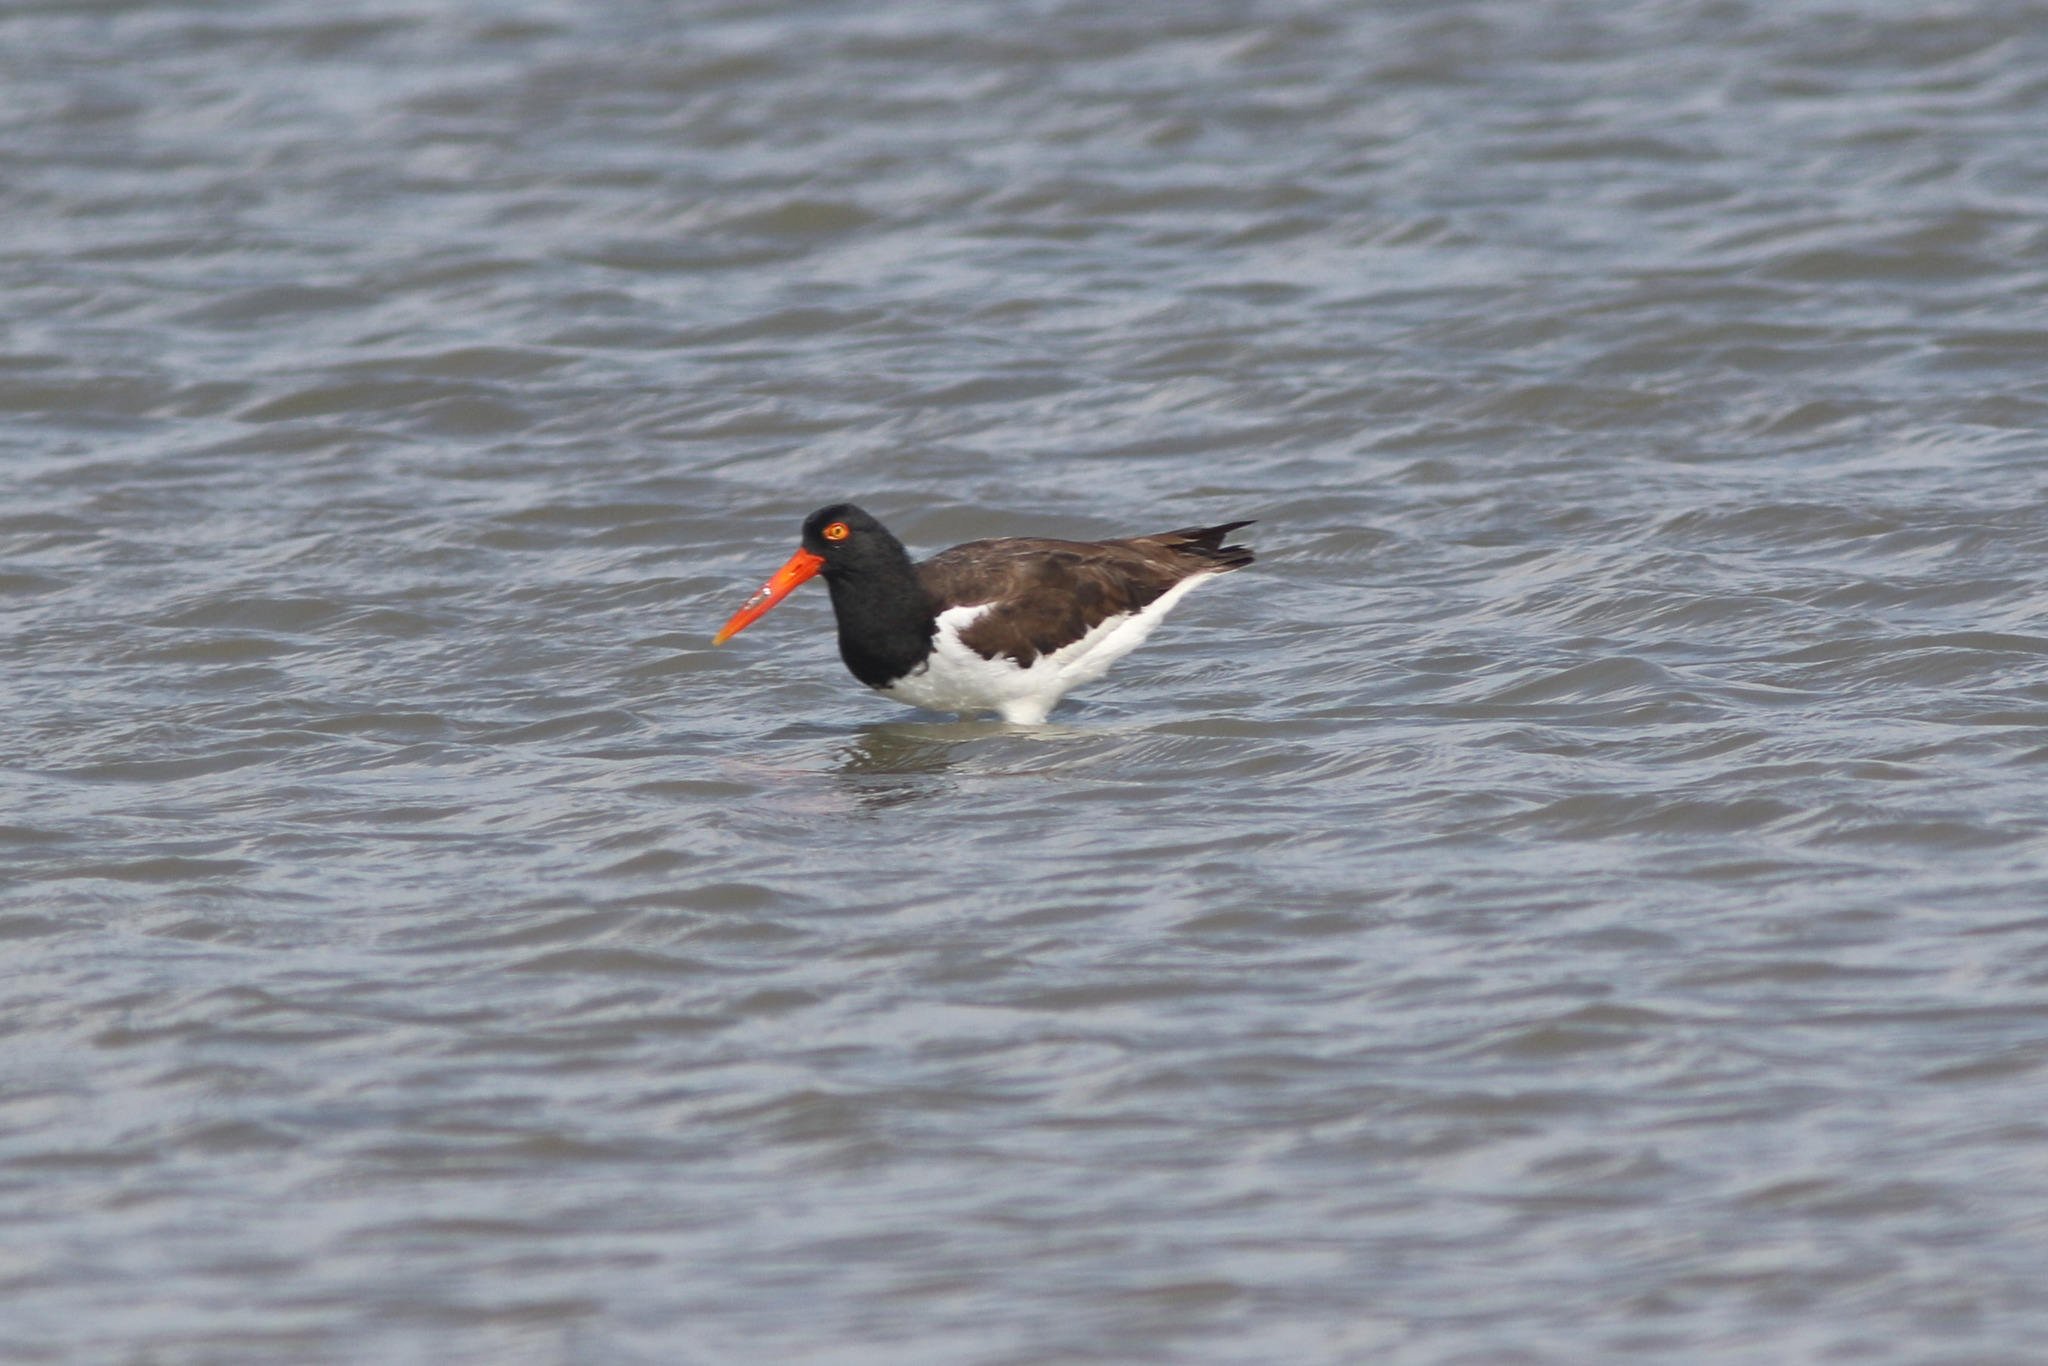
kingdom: Animalia
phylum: Chordata
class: Aves
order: Charadriiformes
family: Haematopodidae
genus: Haematopus
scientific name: Haematopus palliatus
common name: American oystercatcher
